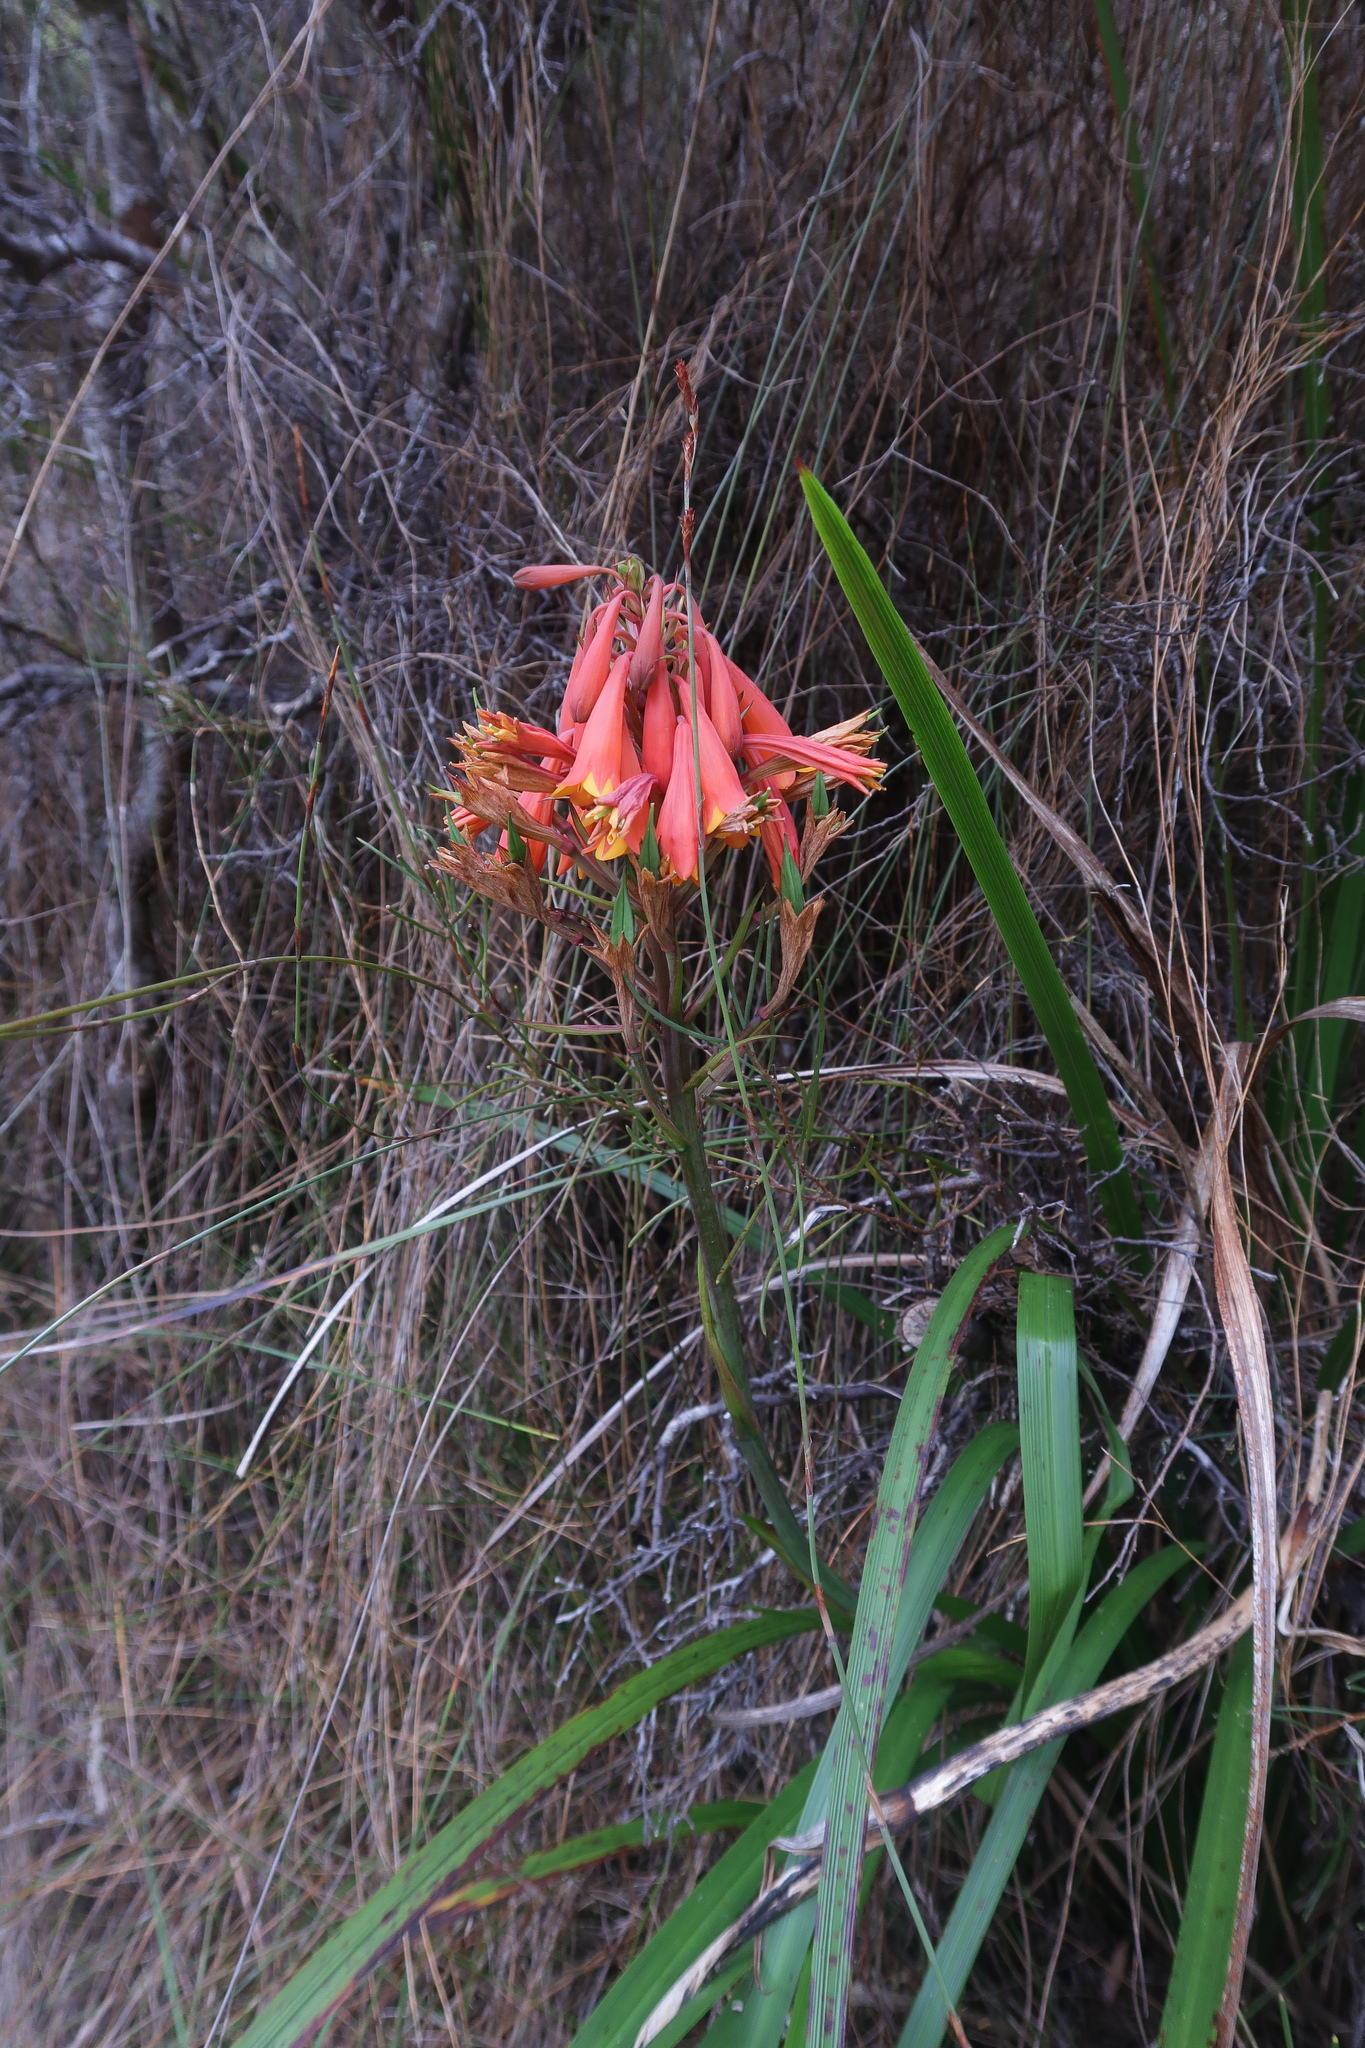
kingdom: Plantae
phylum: Tracheophyta
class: Liliopsida
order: Asparagales
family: Blandfordiaceae
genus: Blandfordia
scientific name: Blandfordia punicea
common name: Tasmanian christmas-bell
